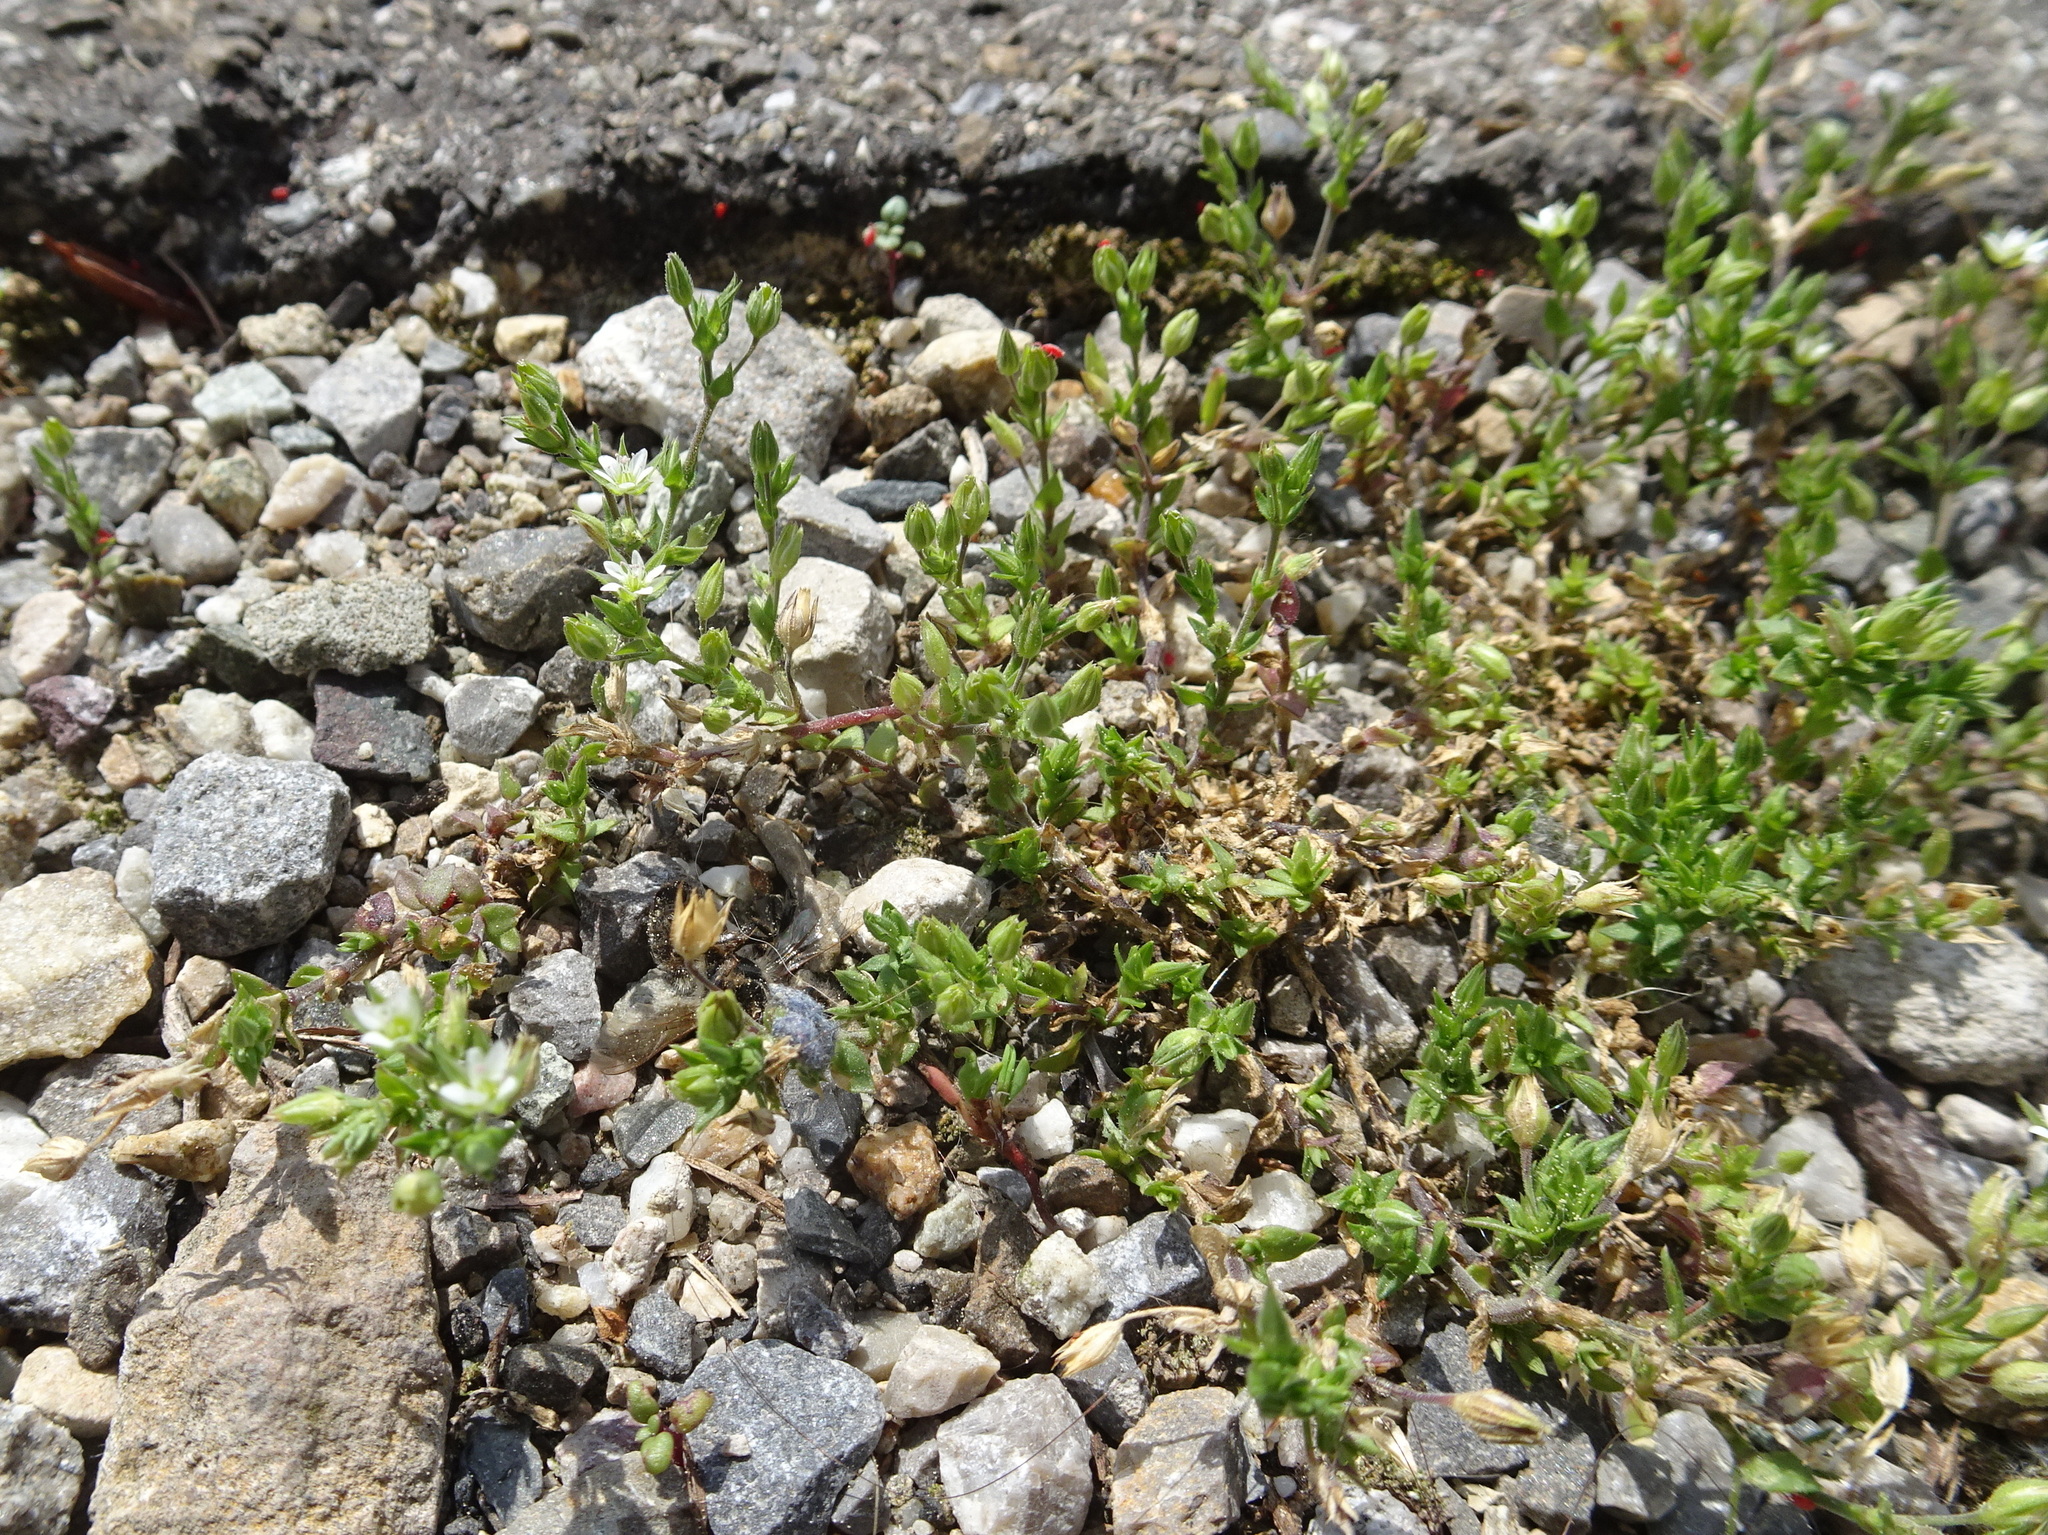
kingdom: Plantae
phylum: Tracheophyta
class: Magnoliopsida
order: Caryophyllales
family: Caryophyllaceae
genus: Arenaria
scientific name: Arenaria serpyllifolia
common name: Thyme-leaved sandwort
